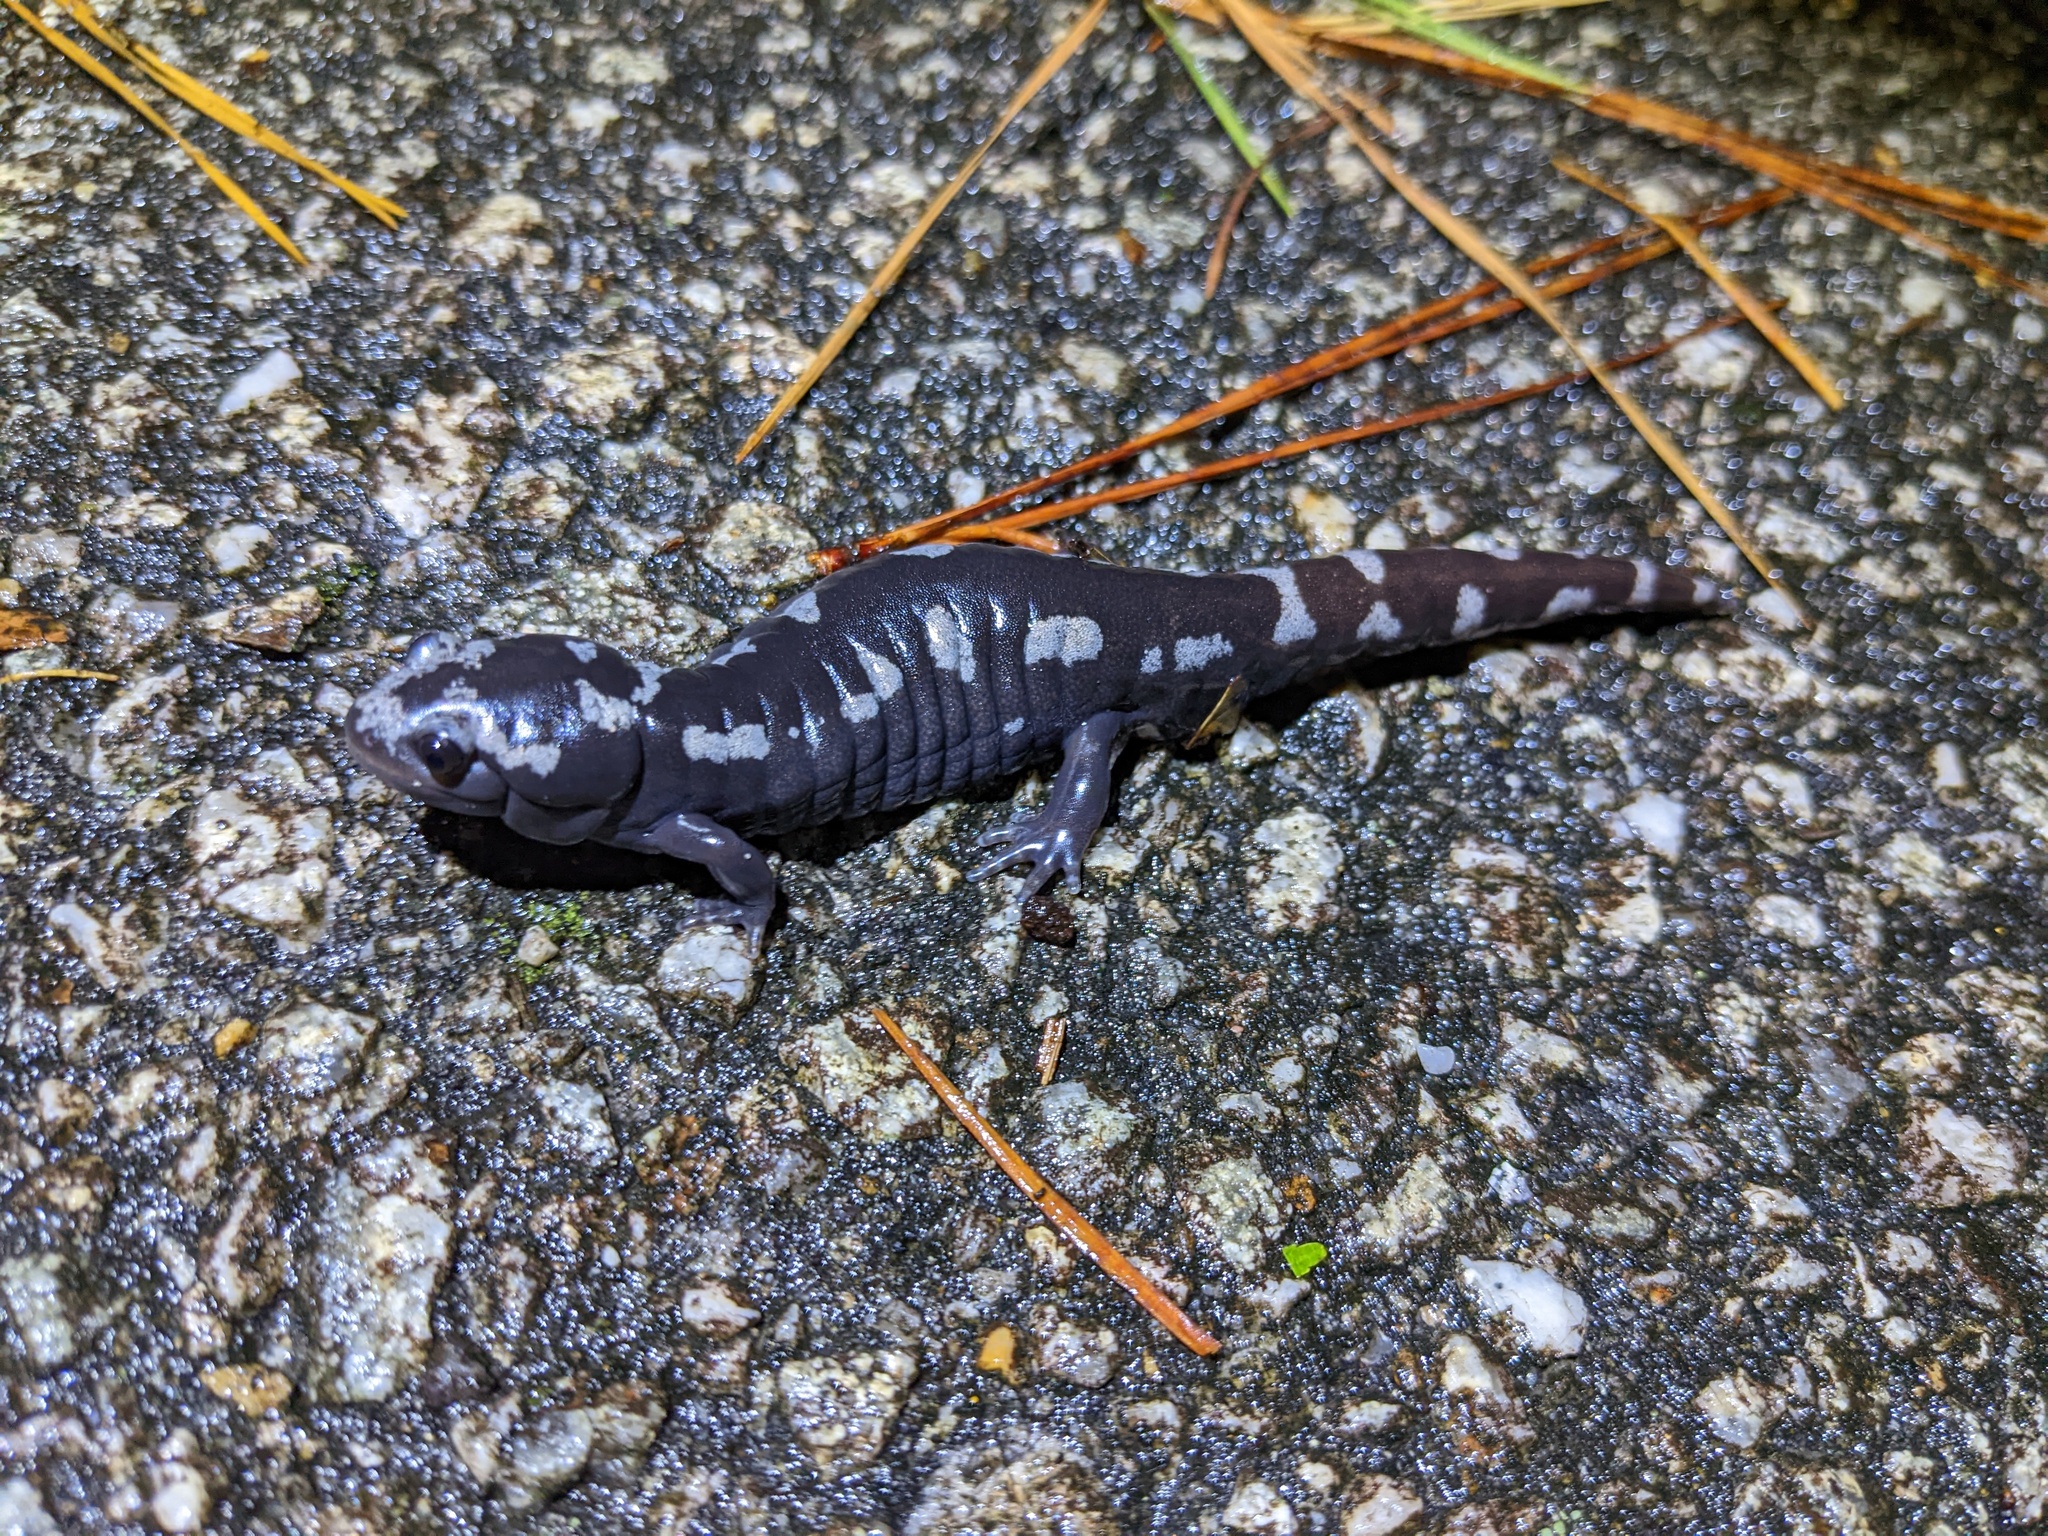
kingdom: Animalia
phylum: Chordata
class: Amphibia
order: Caudata
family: Ambystomatidae
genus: Ambystoma
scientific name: Ambystoma opacum
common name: Marbled salamander
